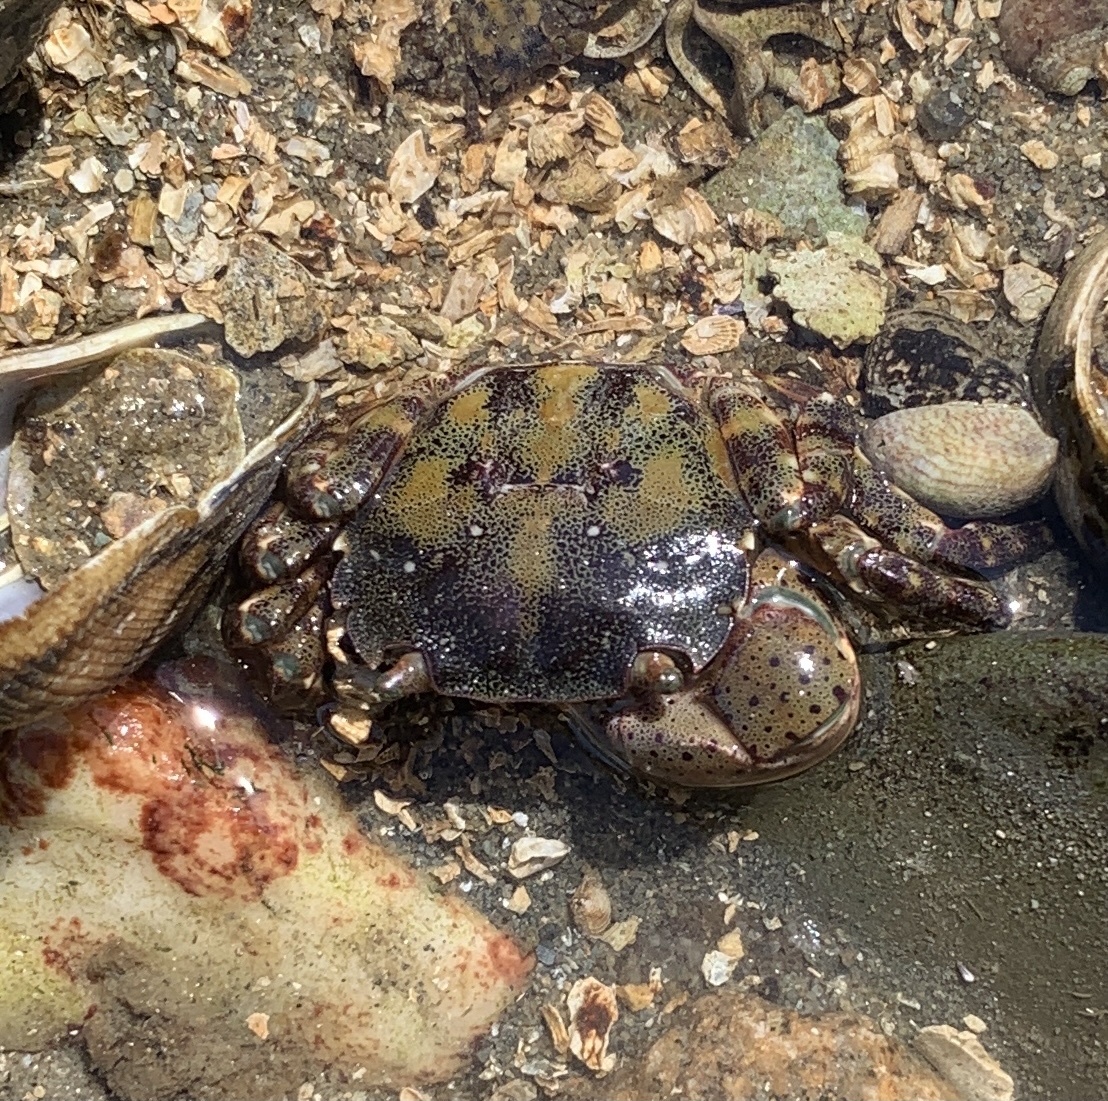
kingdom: Animalia
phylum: Arthropoda
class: Malacostraca
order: Decapoda
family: Varunidae
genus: Hemigrapsus
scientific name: Hemigrapsus sanguineus
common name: Asian shore crab
